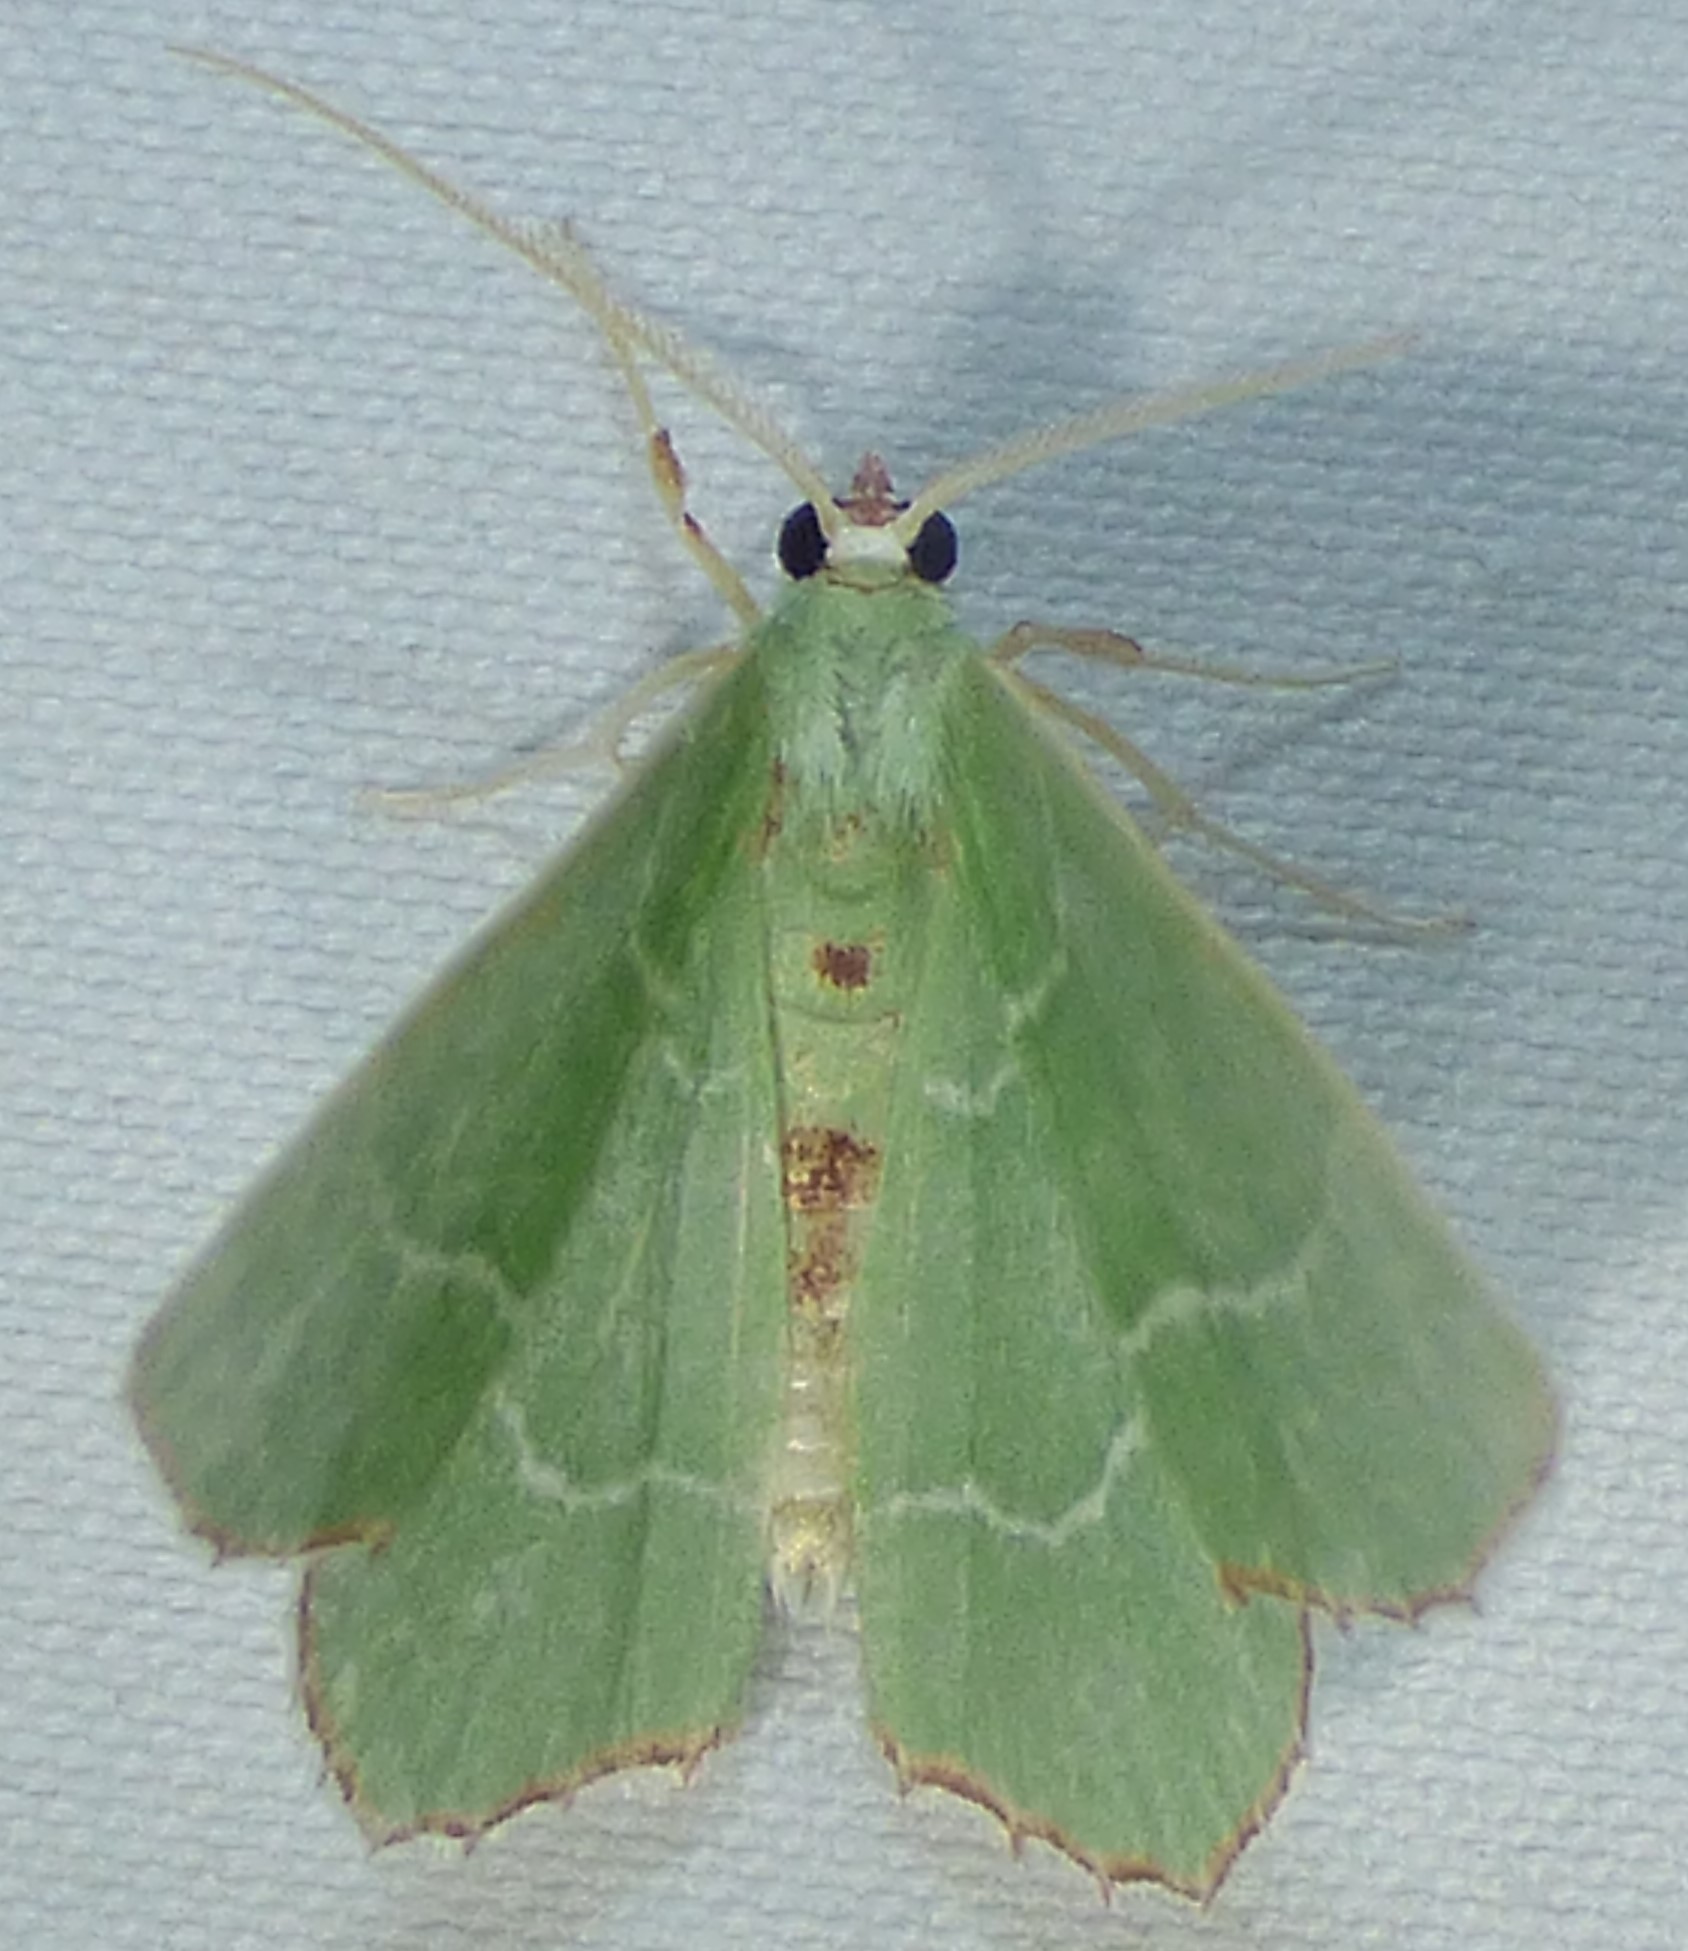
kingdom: Animalia
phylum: Arthropoda
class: Insecta
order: Lepidoptera
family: Geometridae
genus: Nemoria
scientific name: Nemoria saturiba
